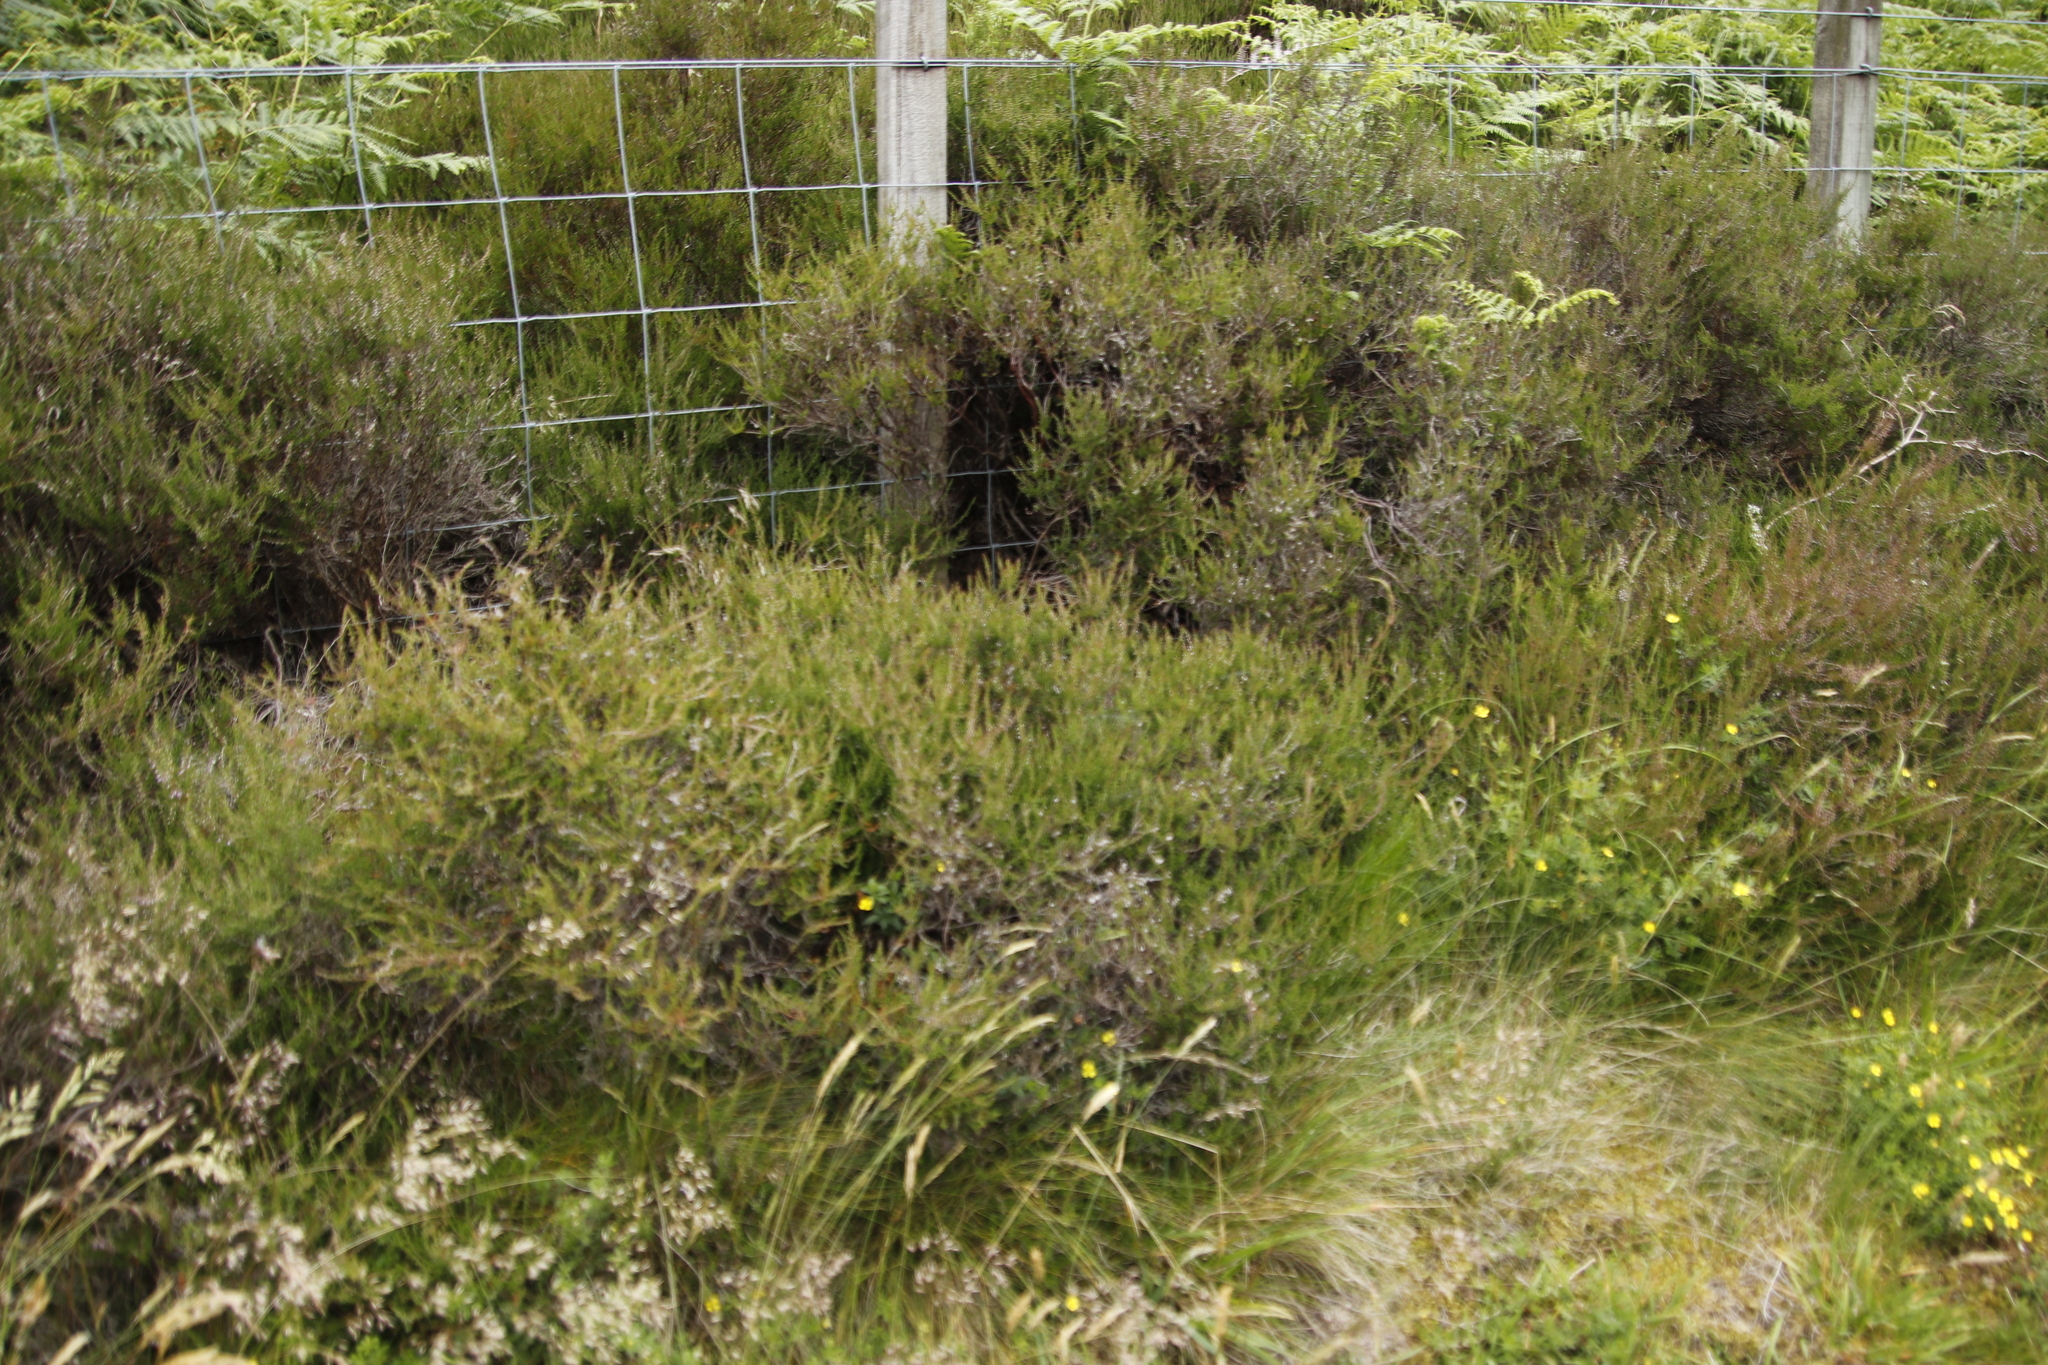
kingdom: Plantae
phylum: Tracheophyta
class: Magnoliopsida
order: Ericales
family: Ericaceae
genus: Calluna
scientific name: Calluna vulgaris
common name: Heather
